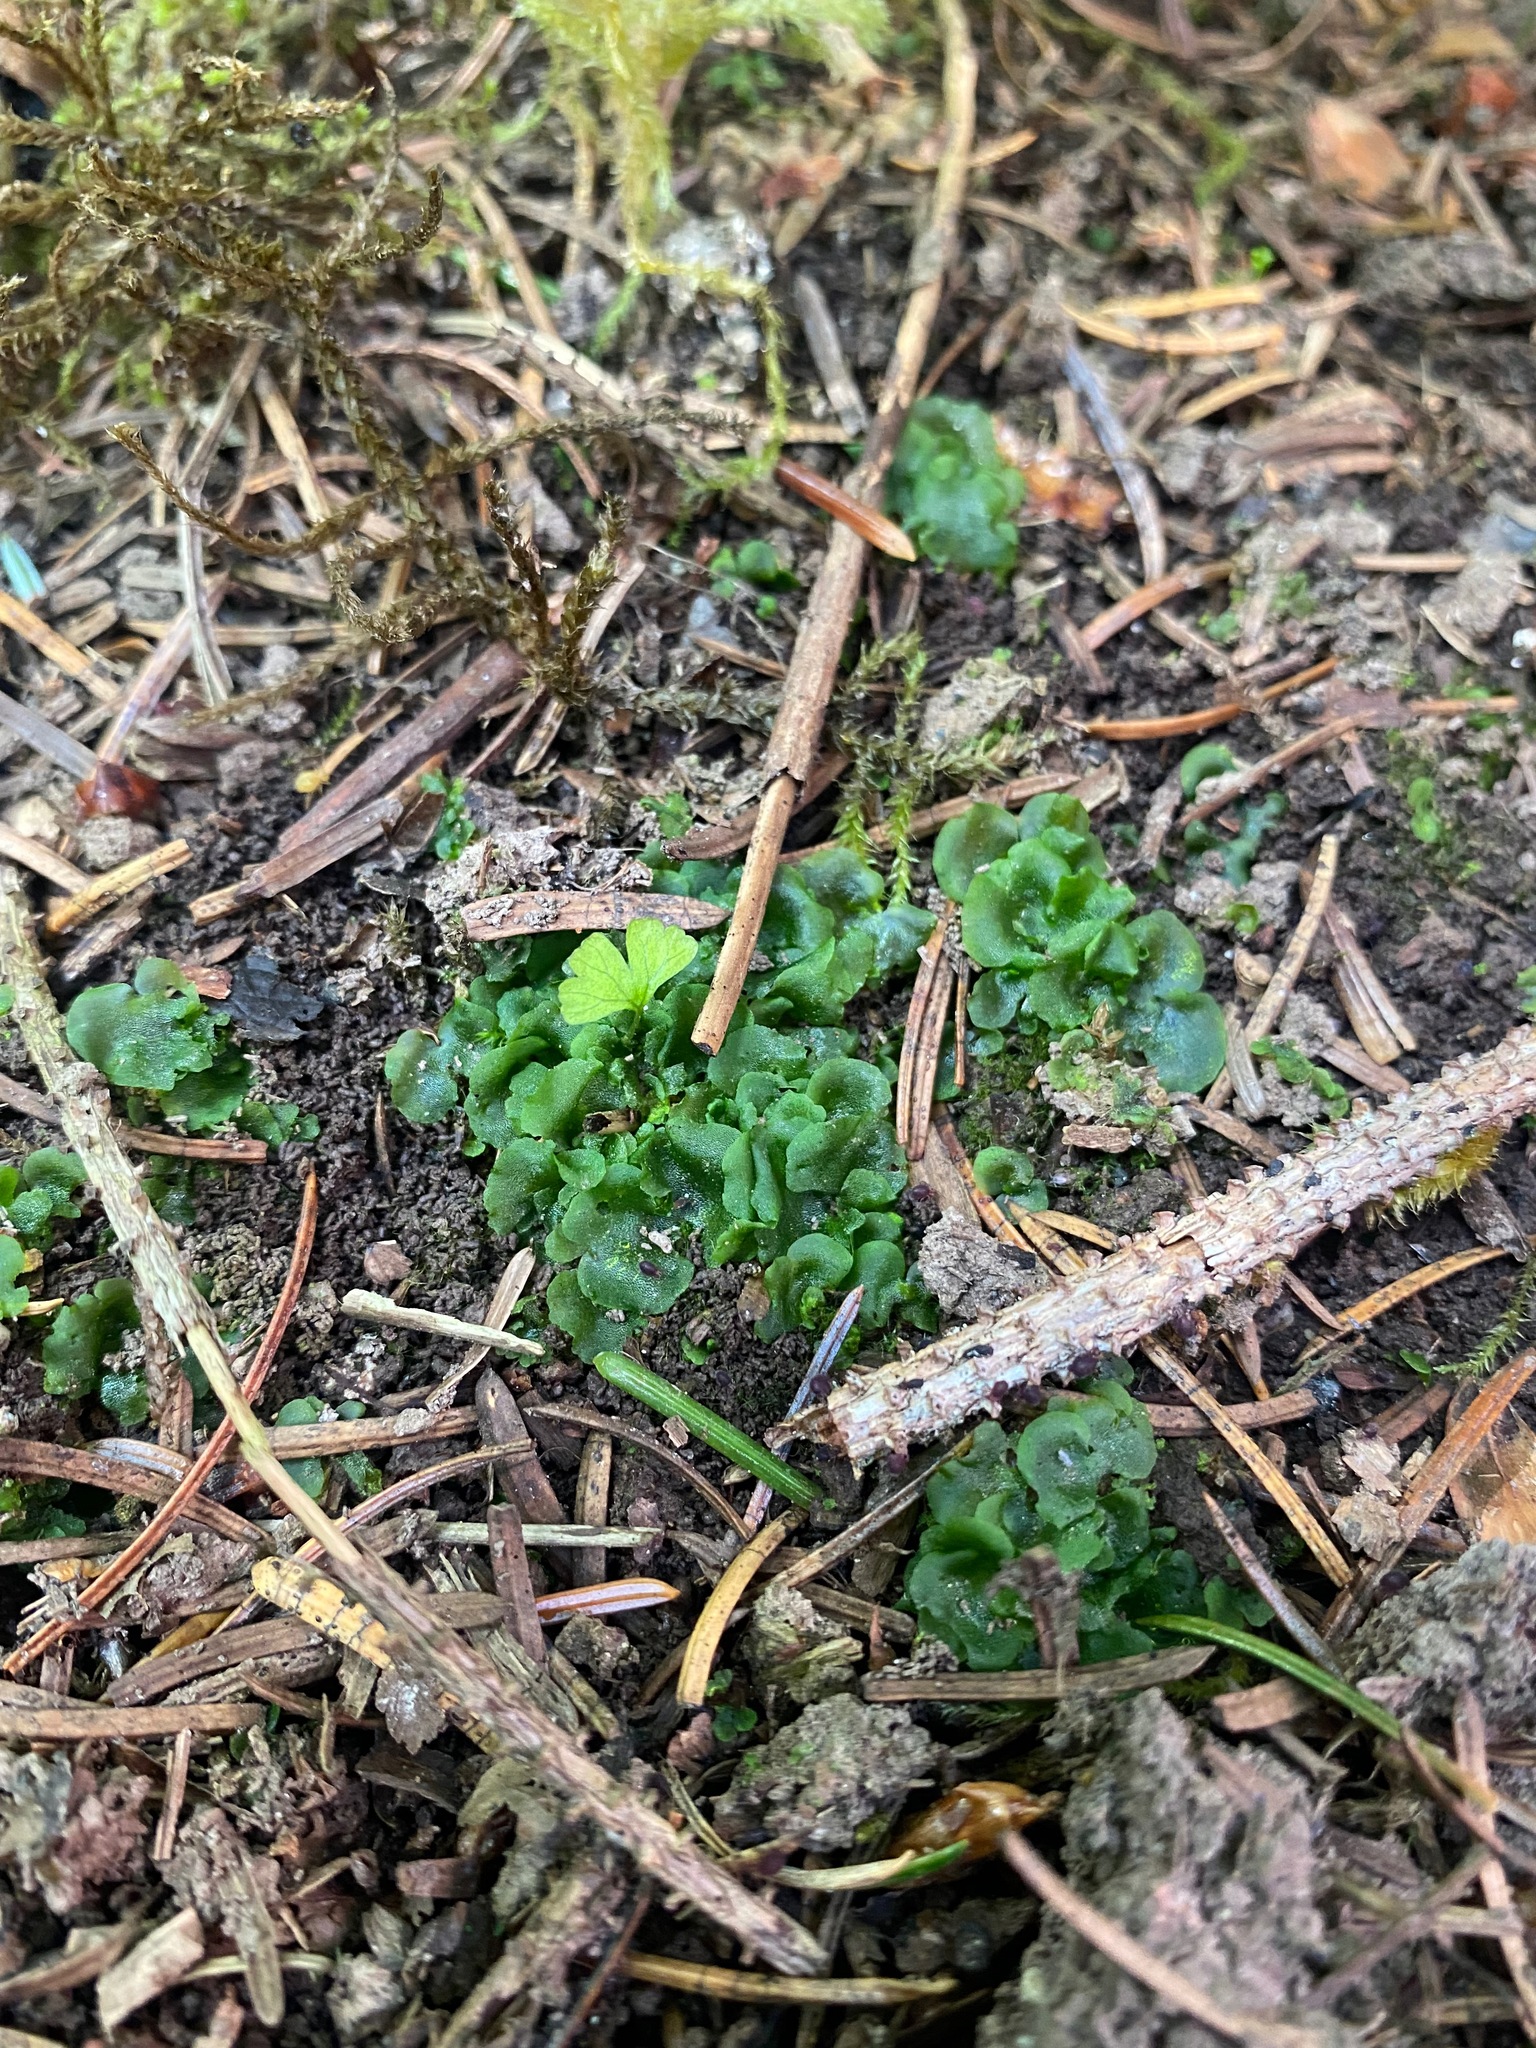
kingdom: Plantae
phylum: Marchantiophyta
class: Jungermanniopsida
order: Pelliales
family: Pelliaceae
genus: Pellia
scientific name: Pellia neesiana
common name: Nees  pellia
